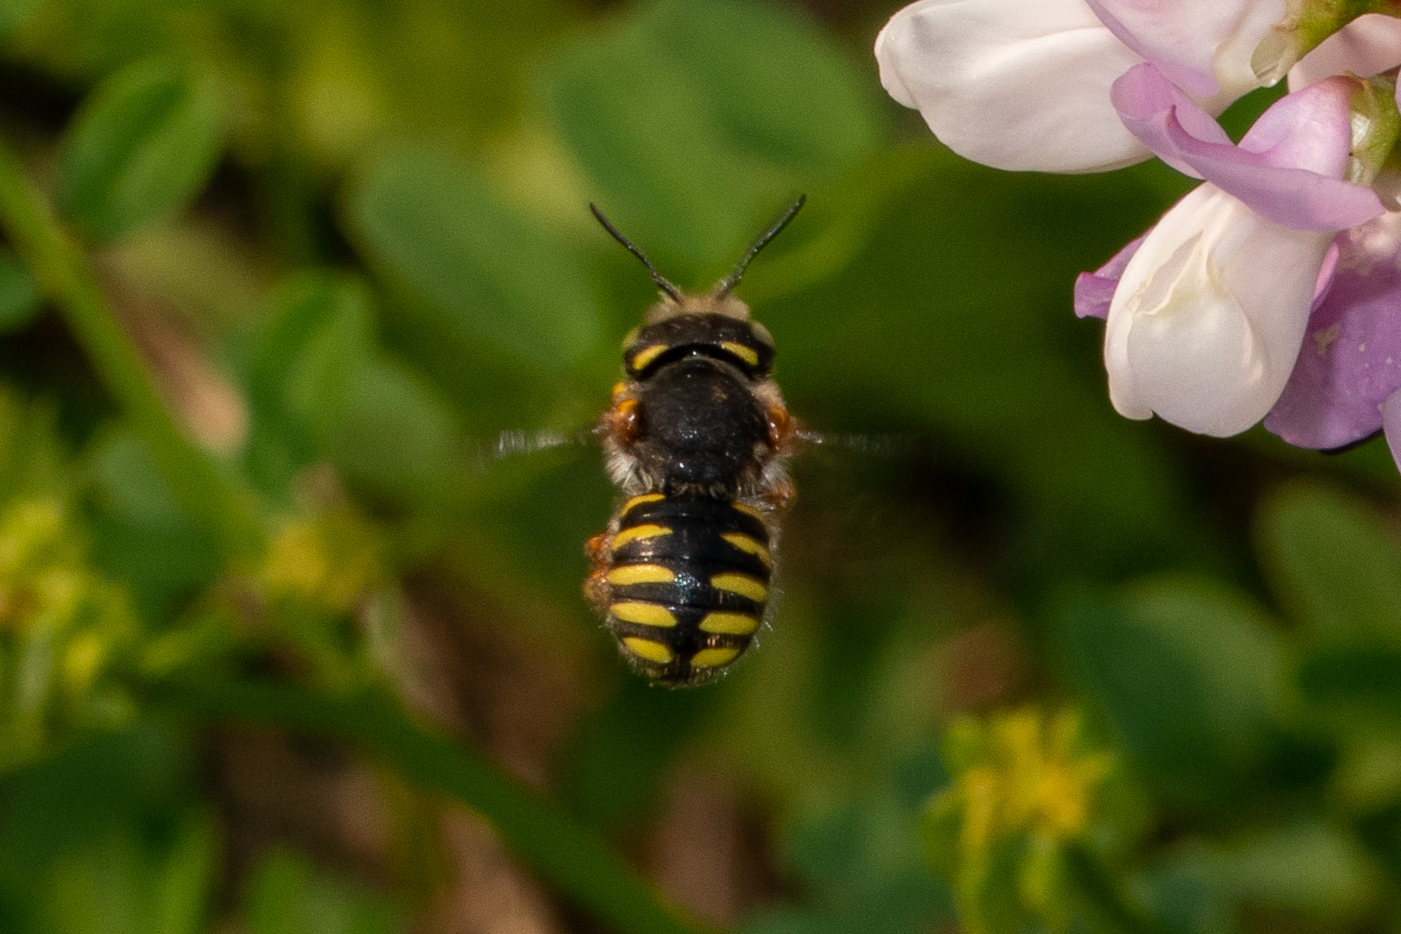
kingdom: Animalia
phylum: Arthropoda
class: Insecta
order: Hymenoptera
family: Megachilidae
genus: Anthidium
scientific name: Anthidium oblongatum
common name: Oblong wool carder bee
